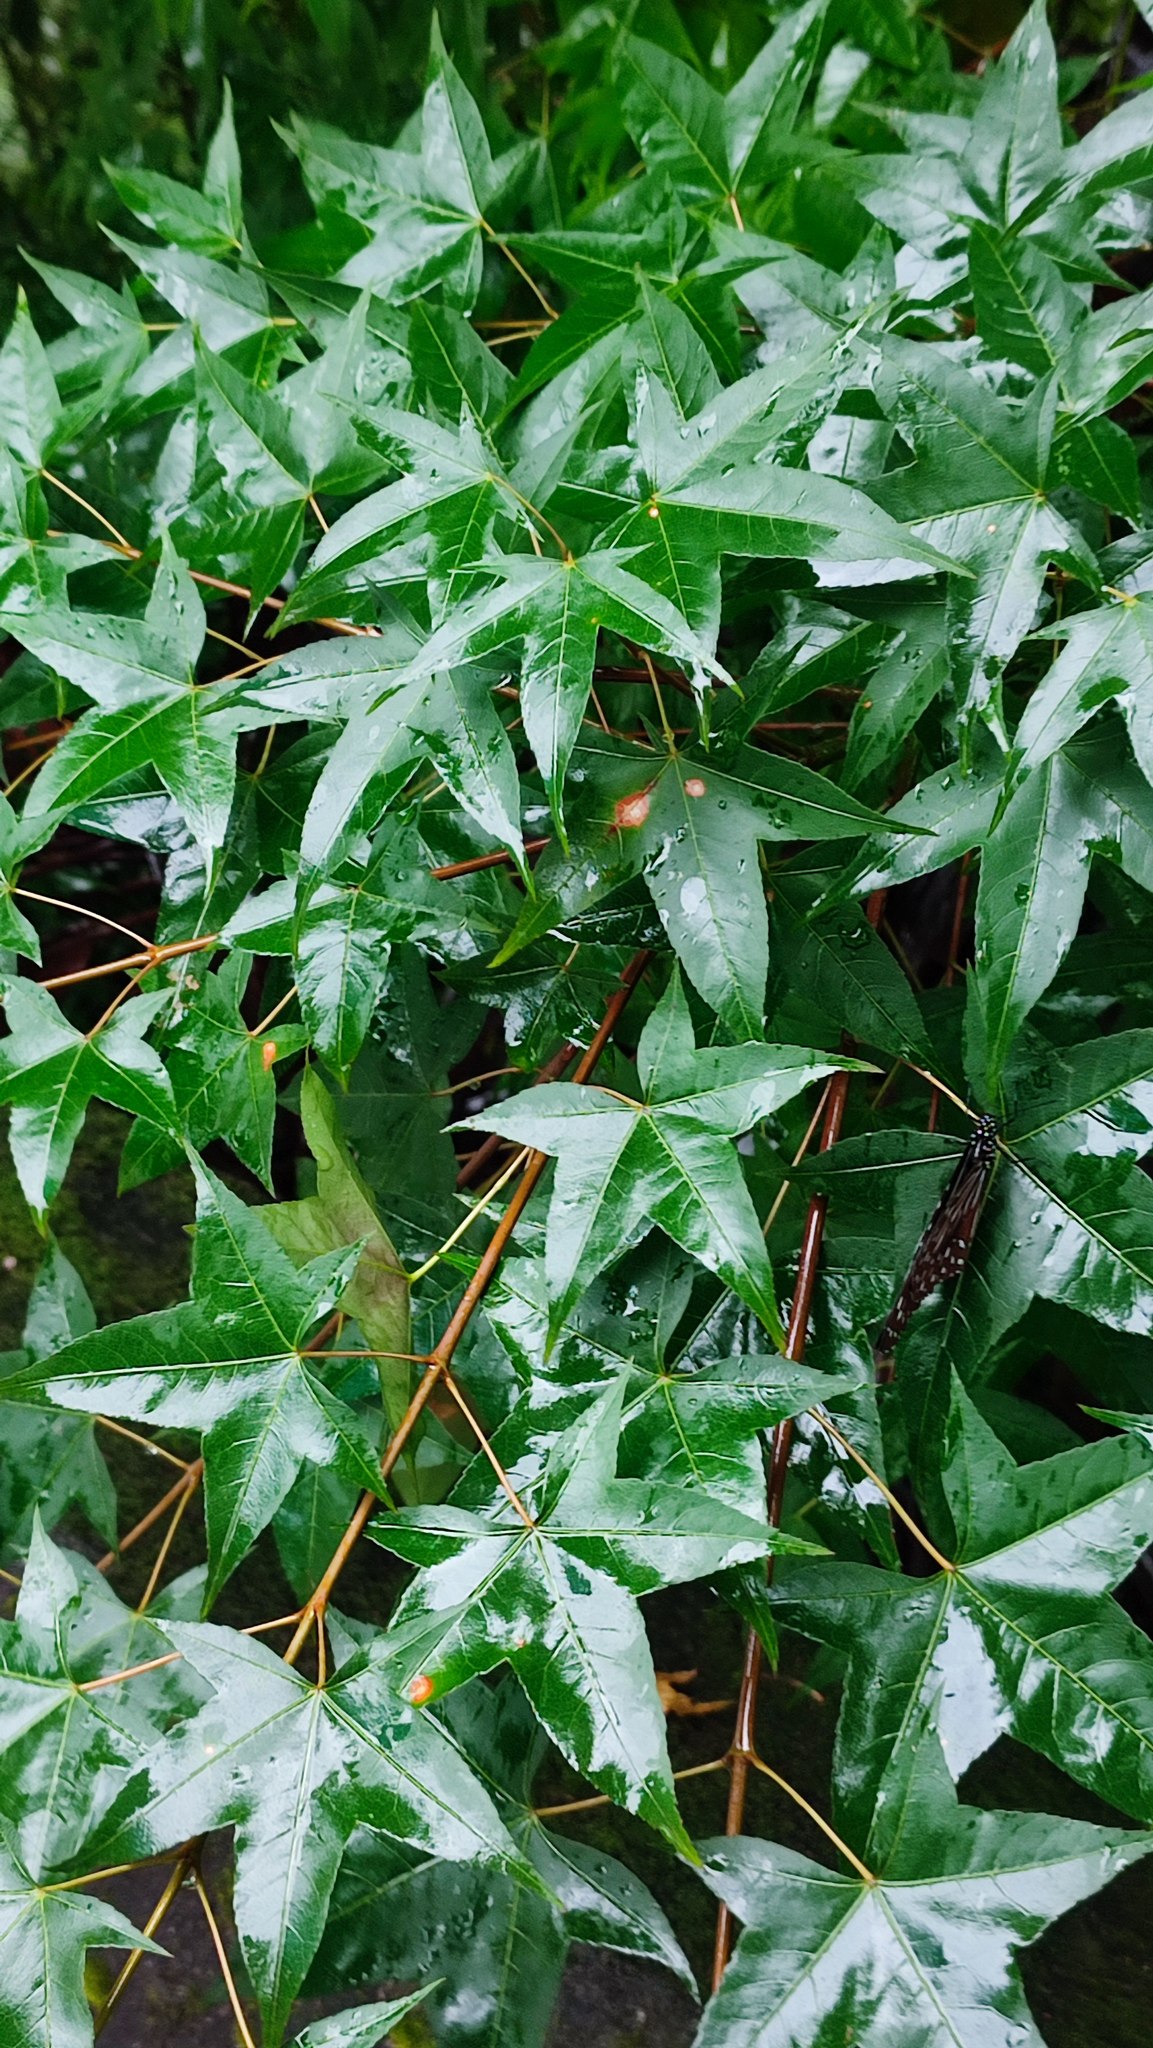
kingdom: Plantae
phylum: Tracheophyta
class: Magnoliopsida
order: Sapindales
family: Sapindaceae
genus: Acer
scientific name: Acer serrulatum
